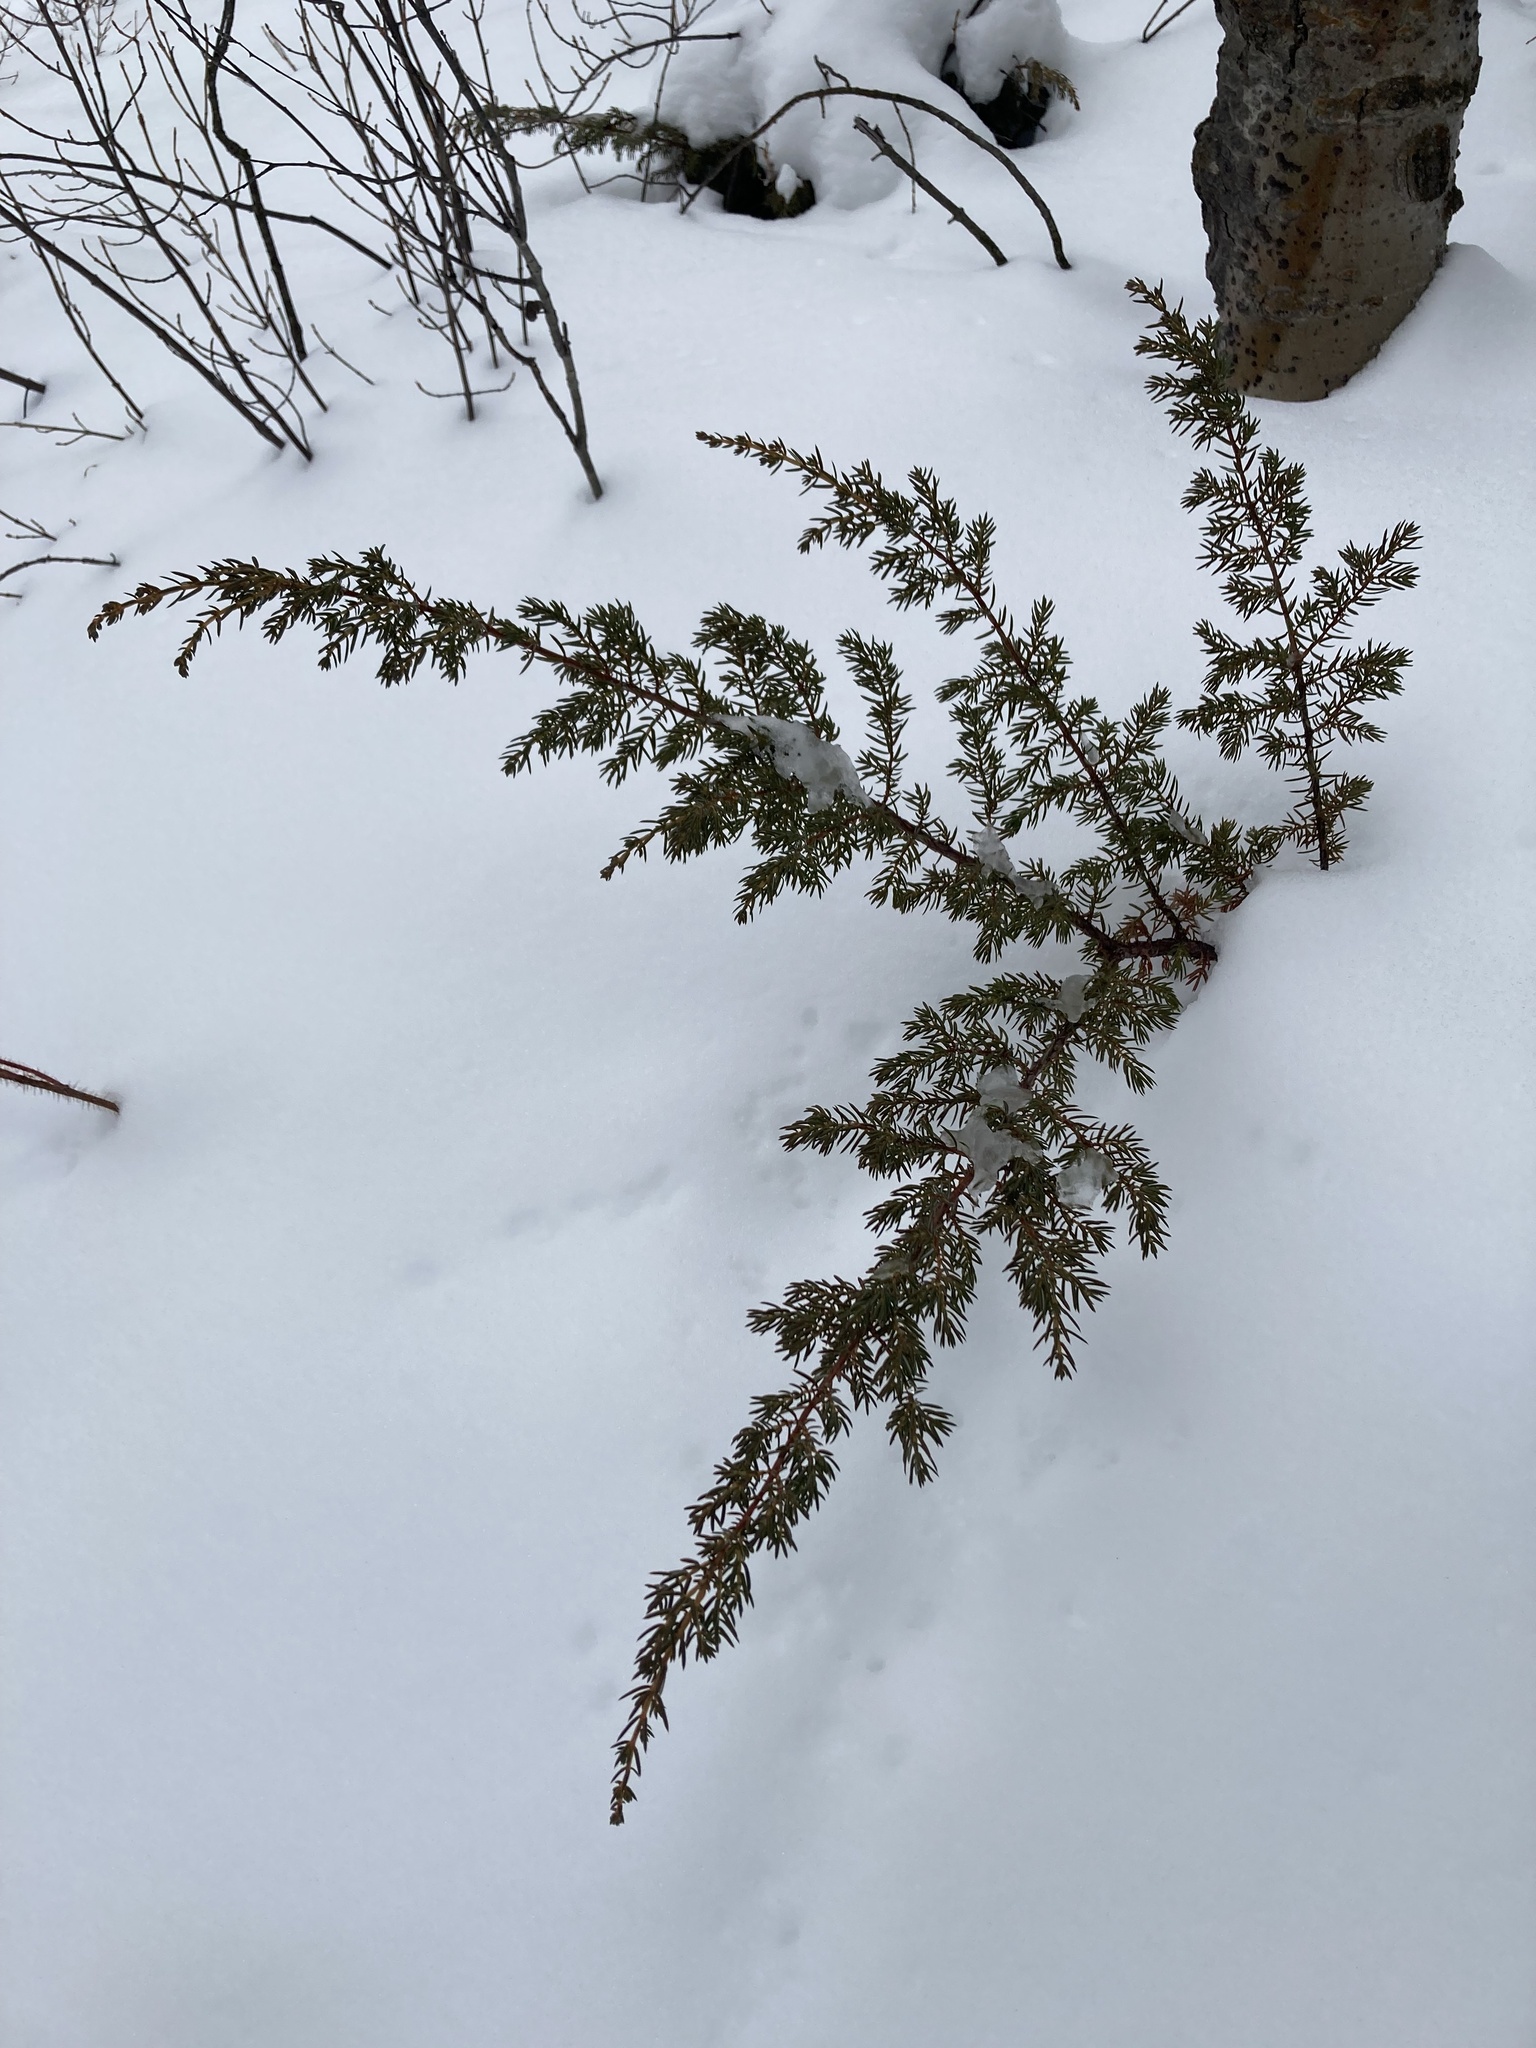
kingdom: Plantae
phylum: Tracheophyta
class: Pinopsida
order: Pinales
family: Cupressaceae
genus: Juniperus
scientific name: Juniperus communis
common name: Common juniper
